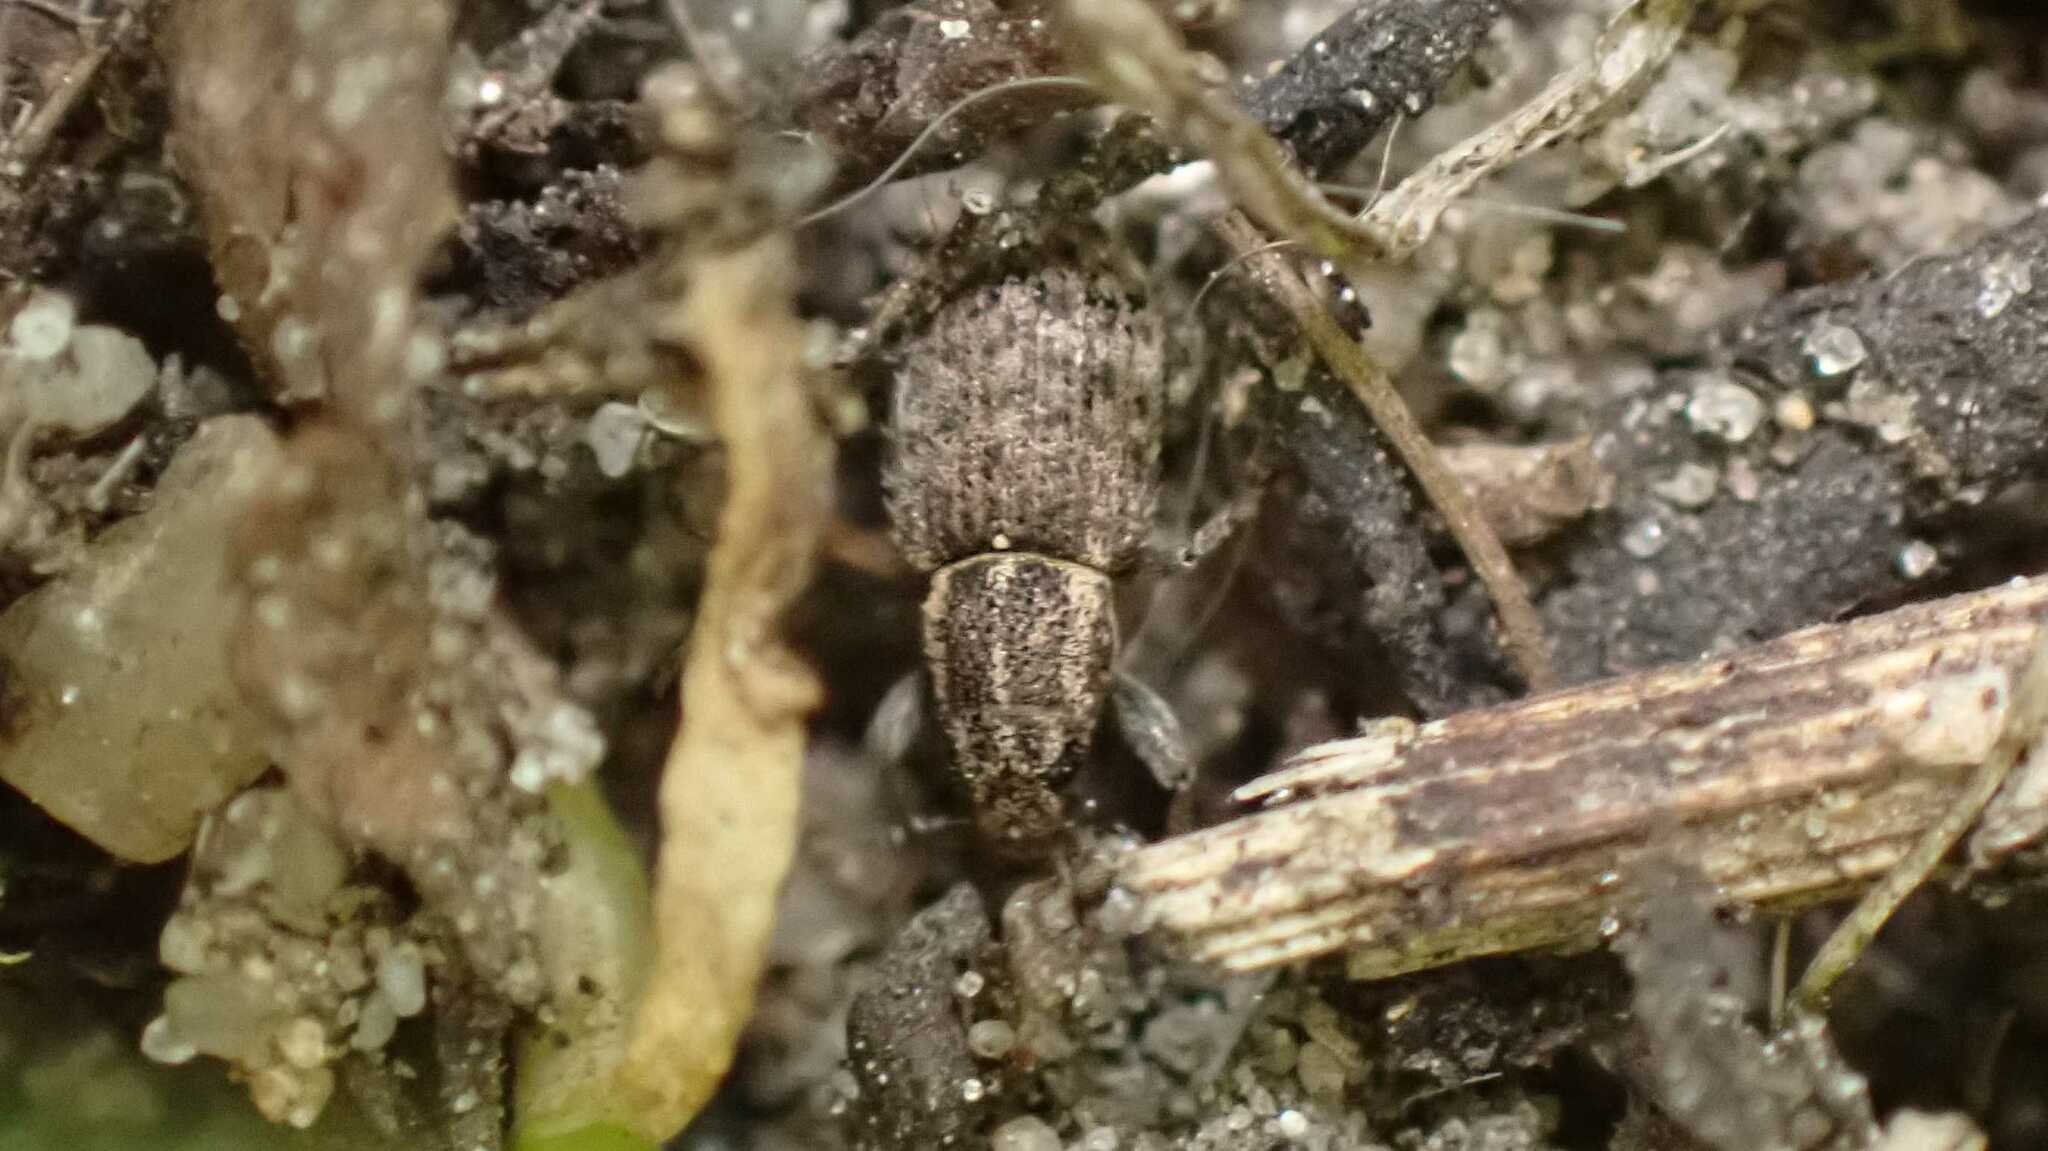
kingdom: Animalia
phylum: Arthropoda
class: Insecta
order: Coleoptera
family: Curculionidae
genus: Sitona
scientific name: Sitona hispidulus
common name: Clover weevil
